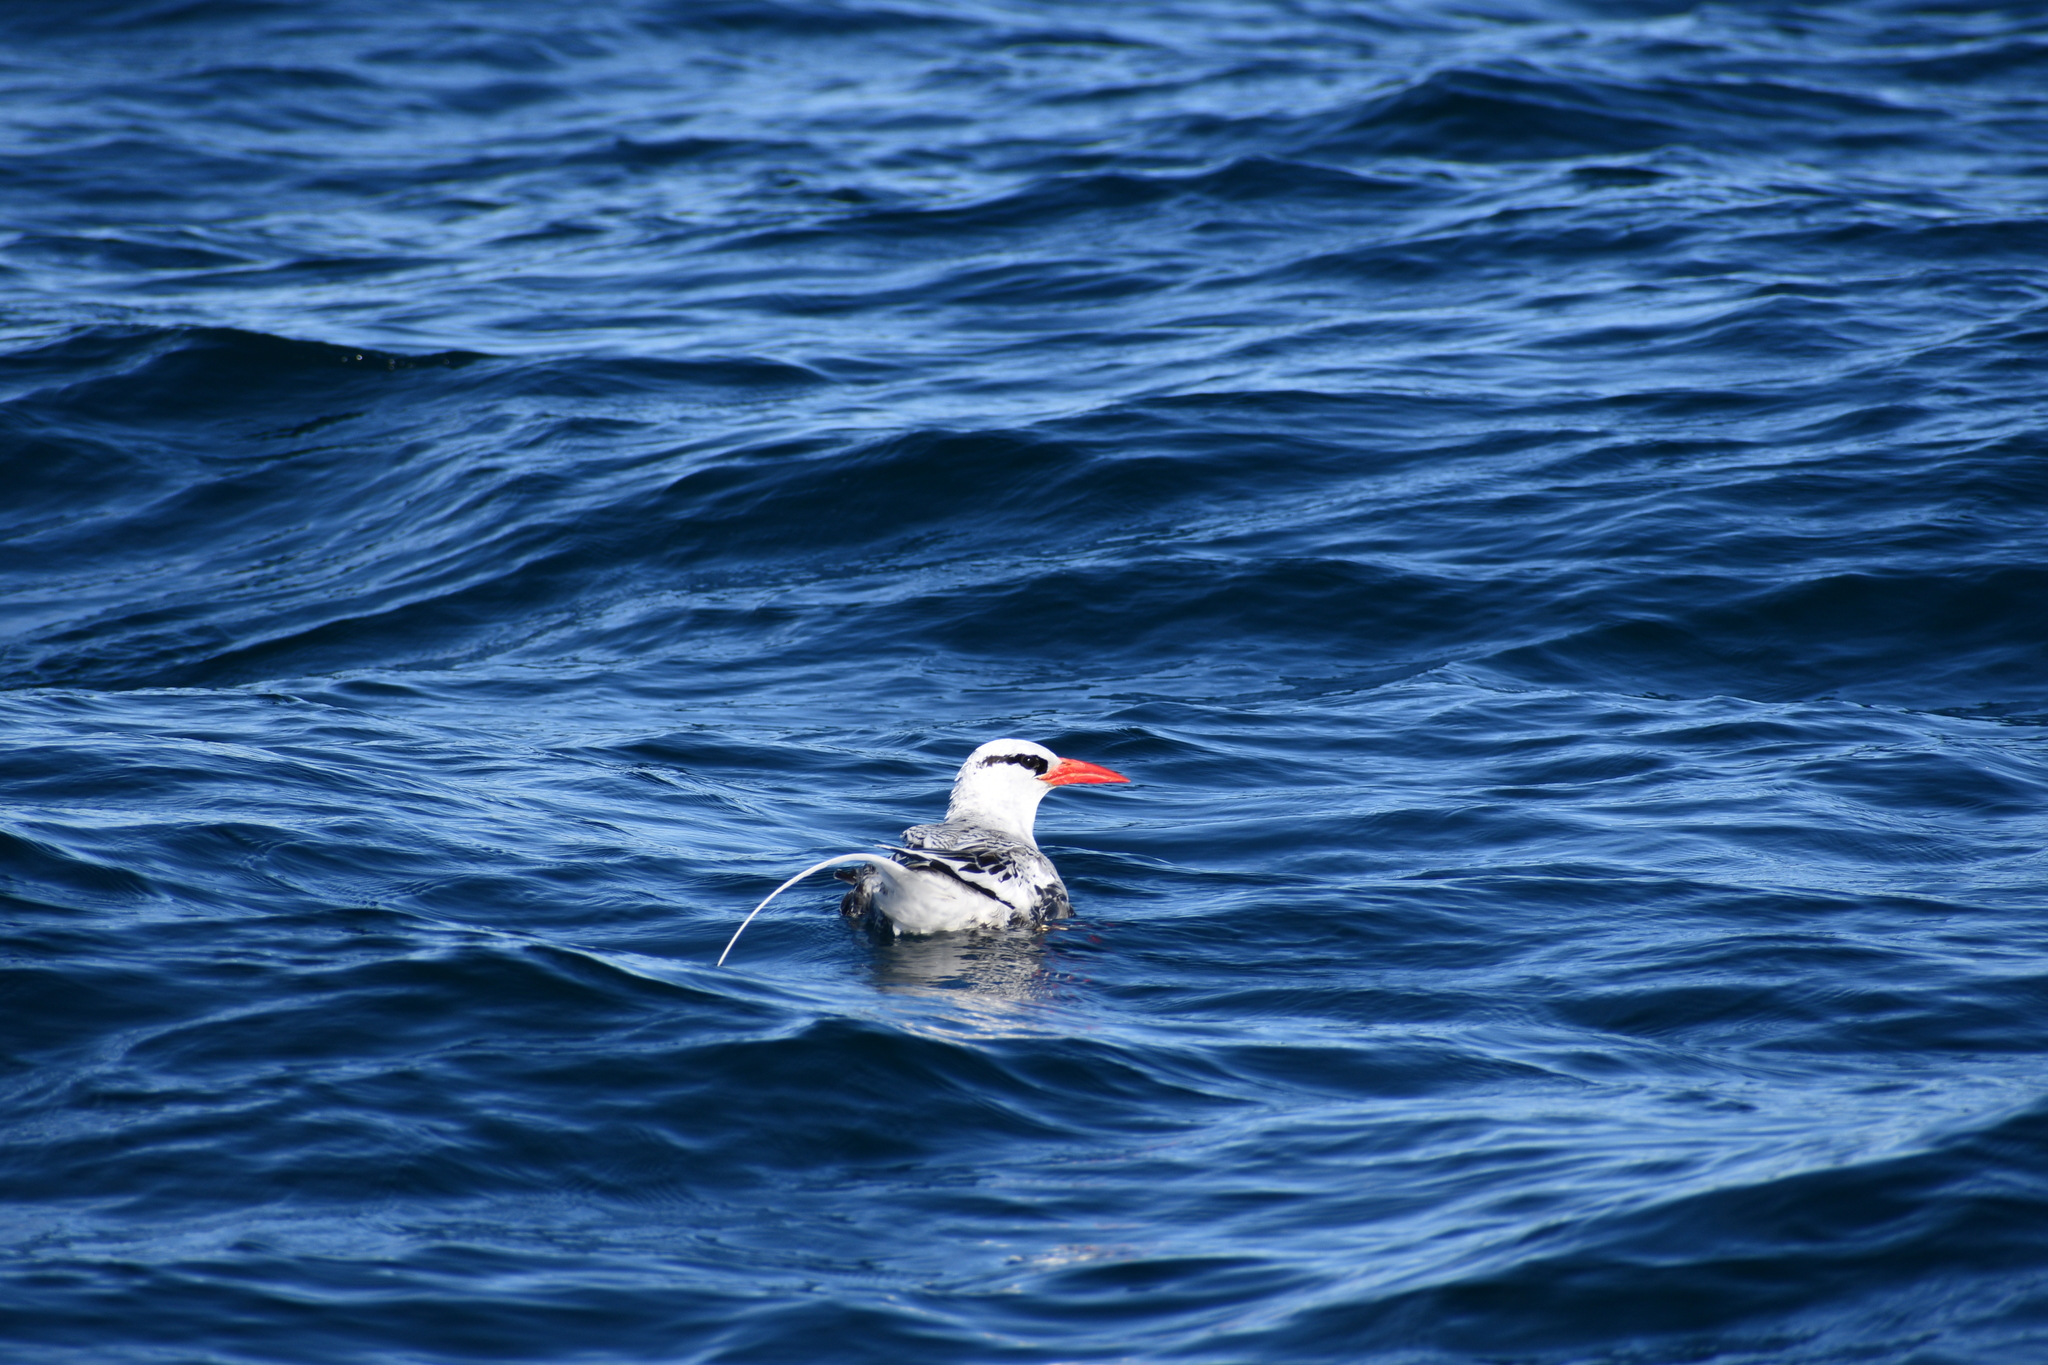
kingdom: Animalia
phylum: Chordata
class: Aves
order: Phaethontiformes
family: Phaethontidae
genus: Phaethon
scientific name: Phaethon aethereus
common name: Red-billed tropicbird
